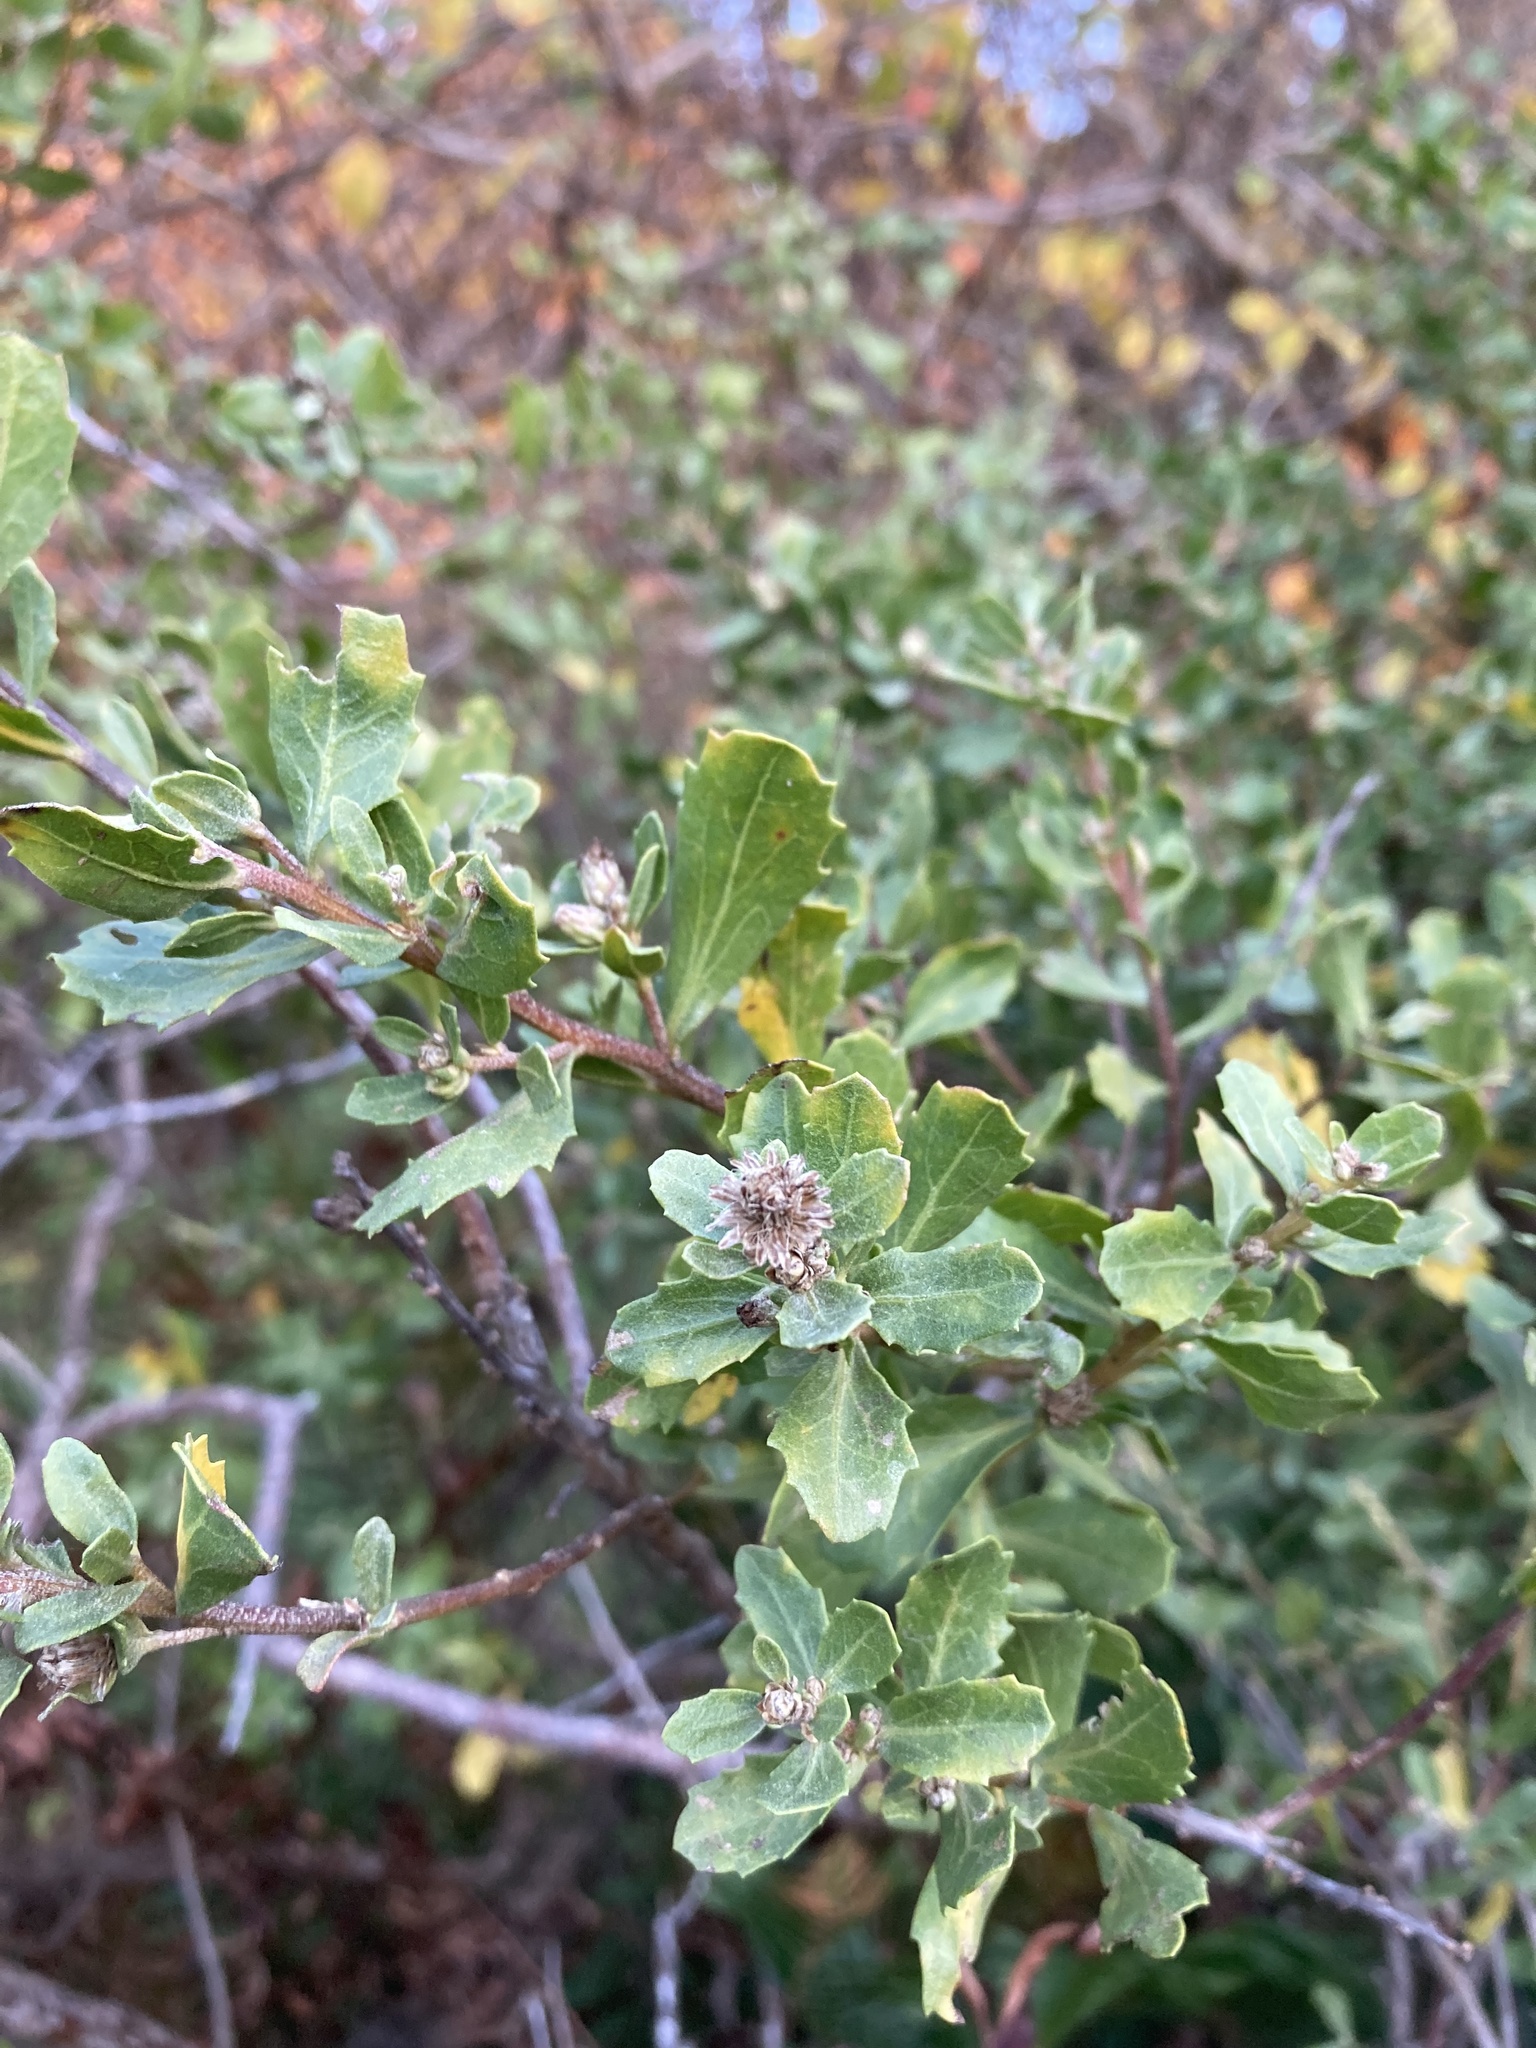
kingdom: Plantae
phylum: Tracheophyta
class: Magnoliopsida
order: Asterales
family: Asteraceae
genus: Baccharis
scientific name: Baccharis pilularis
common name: Coyotebrush
